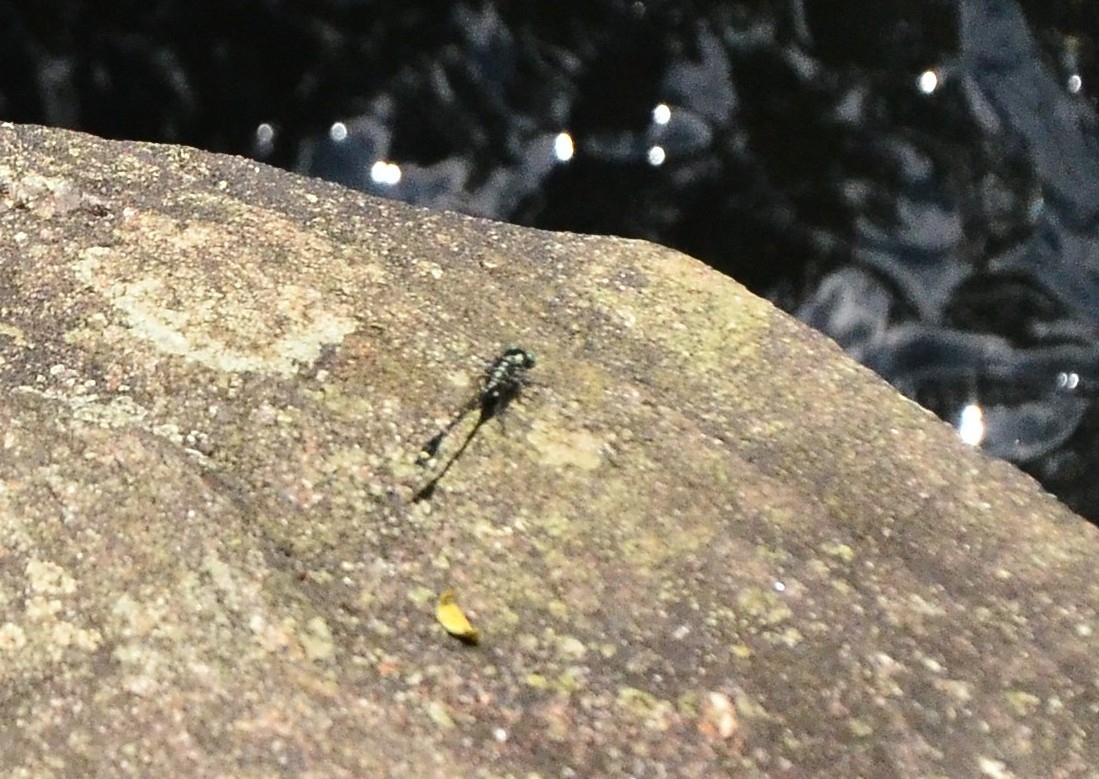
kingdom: Animalia
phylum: Arthropoda
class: Insecta
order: Odonata
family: Gomphidae
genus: Burmagomphus
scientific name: Burmagomphus laidlawi
